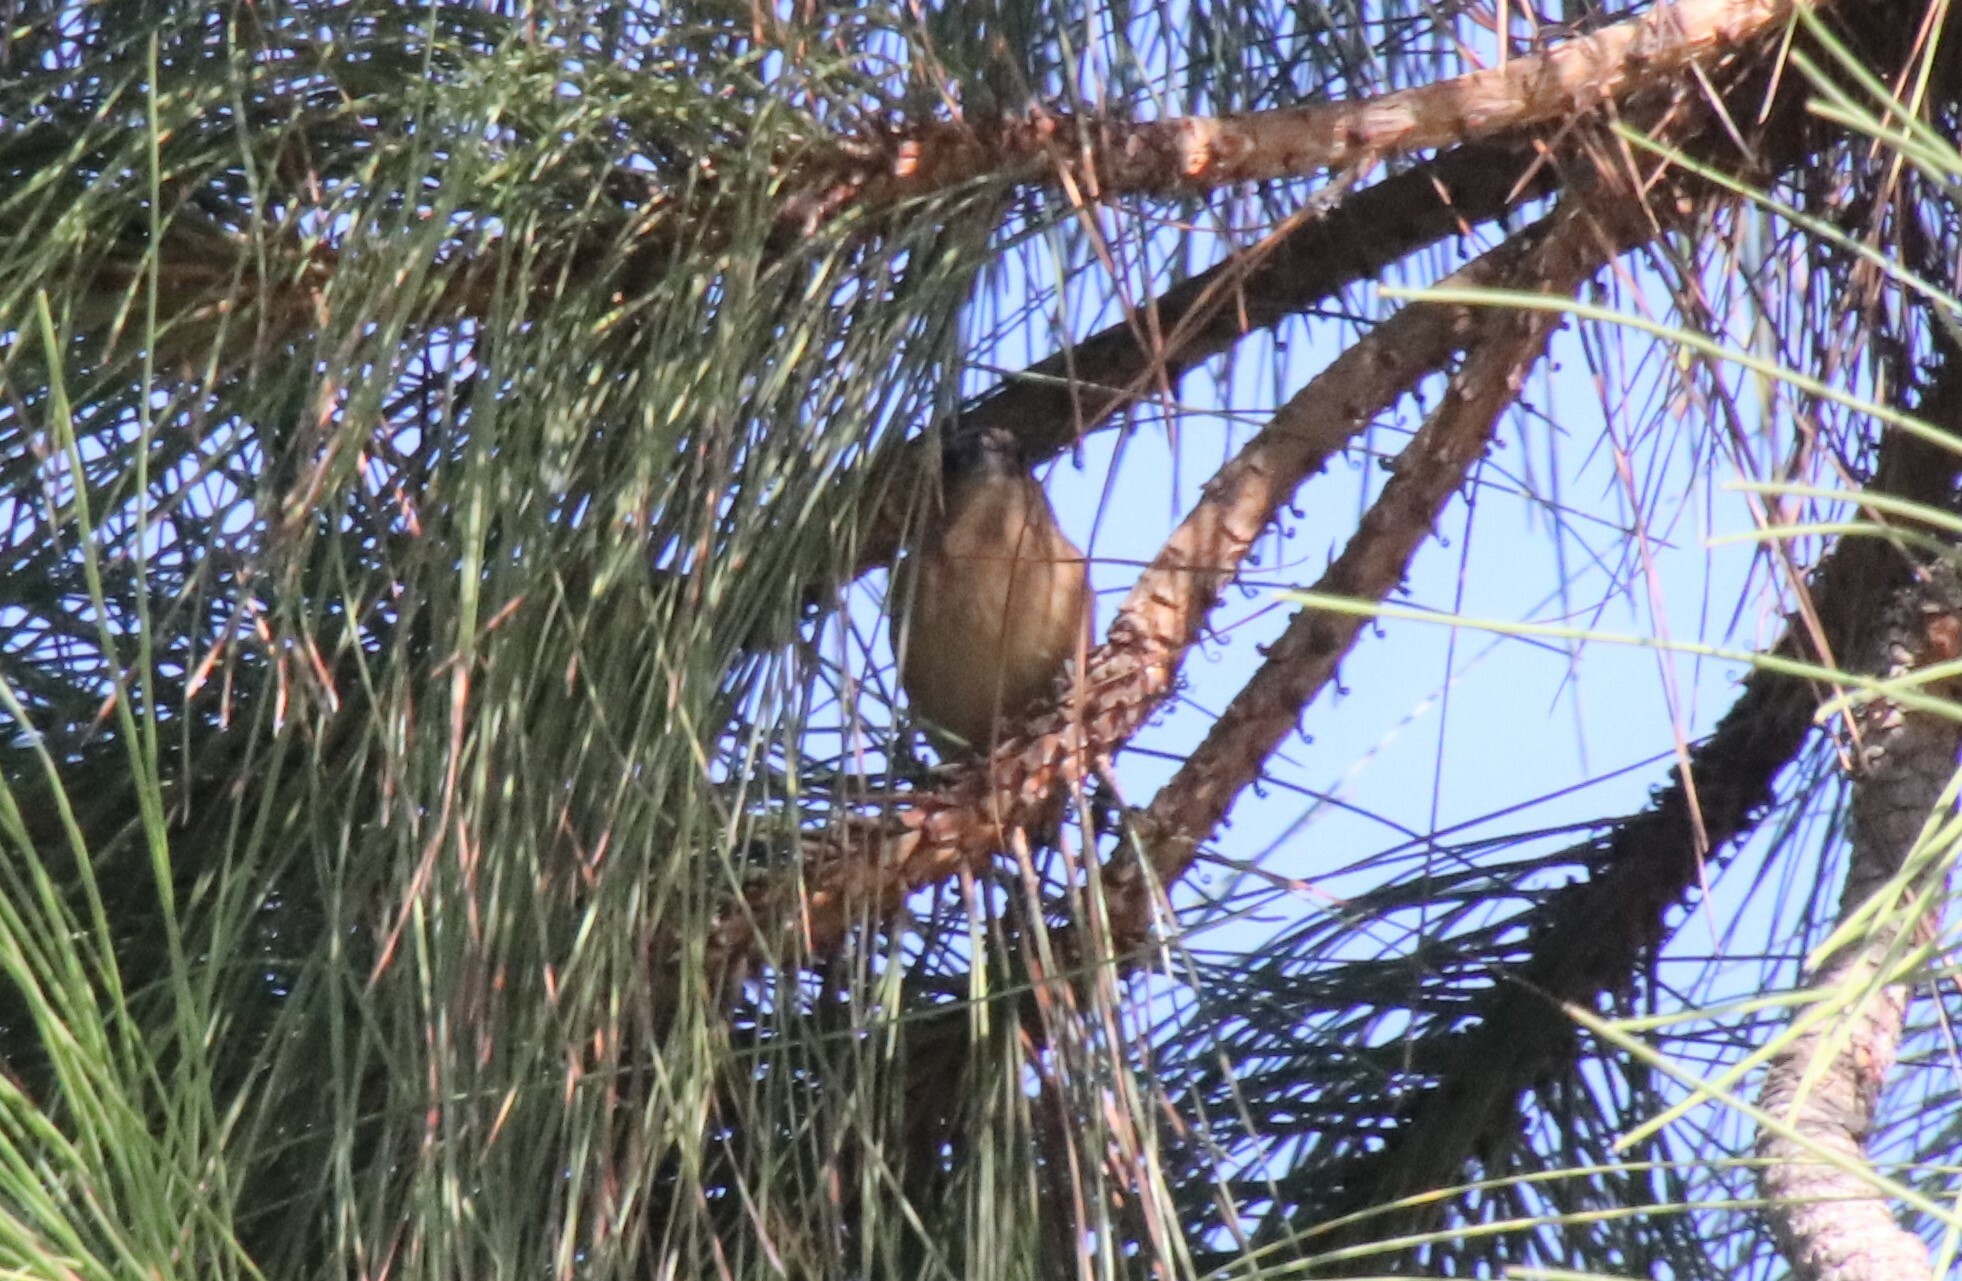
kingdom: Animalia
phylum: Chordata
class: Aves
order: Passeriformes
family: Estrildidae
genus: Lonchura
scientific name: Lonchura punctulata
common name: Scaly-breasted munia
